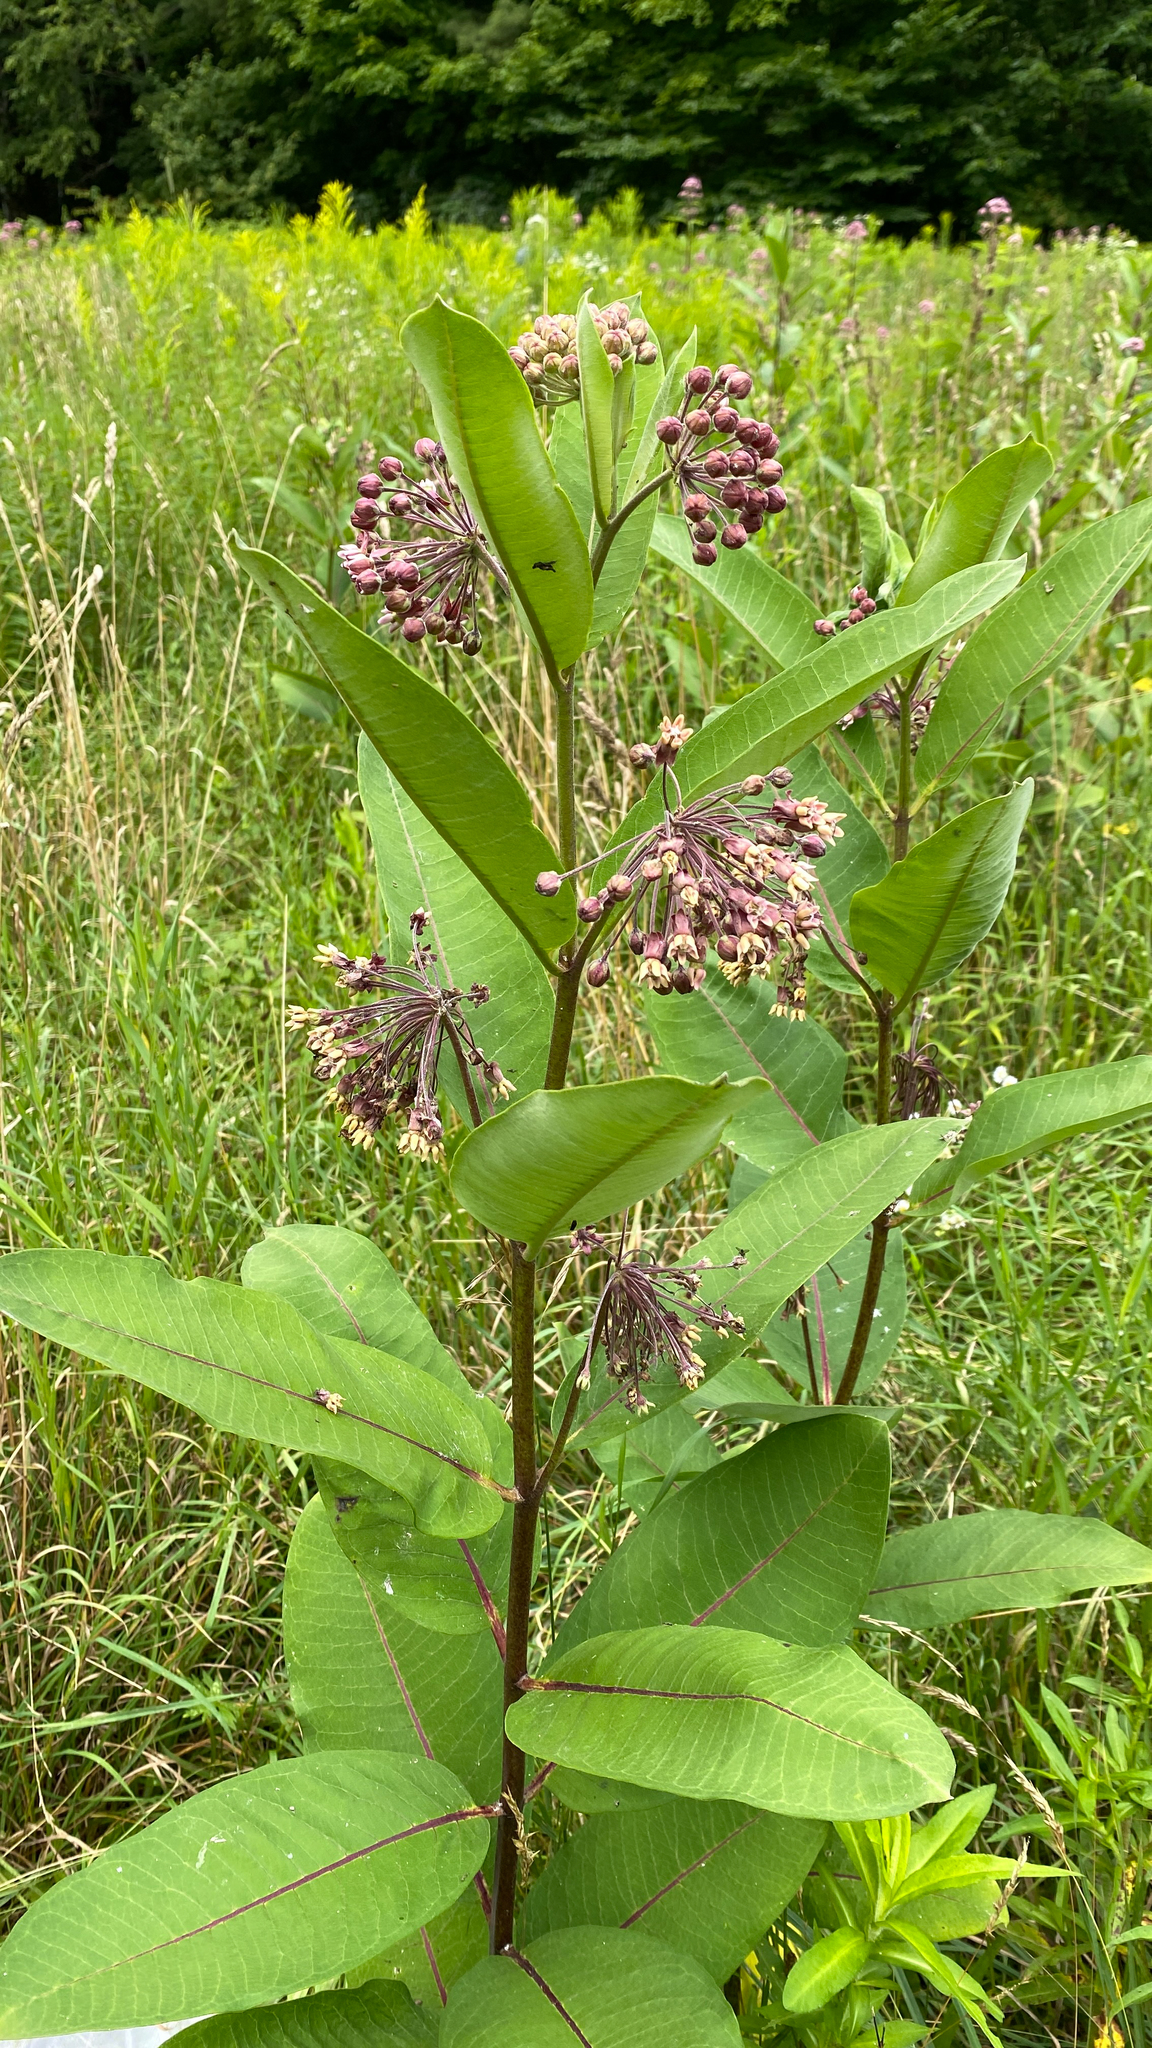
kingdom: Plantae
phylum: Tracheophyta
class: Magnoliopsida
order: Gentianales
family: Apocynaceae
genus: Asclepias
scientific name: Asclepias syriaca
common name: Common milkweed
